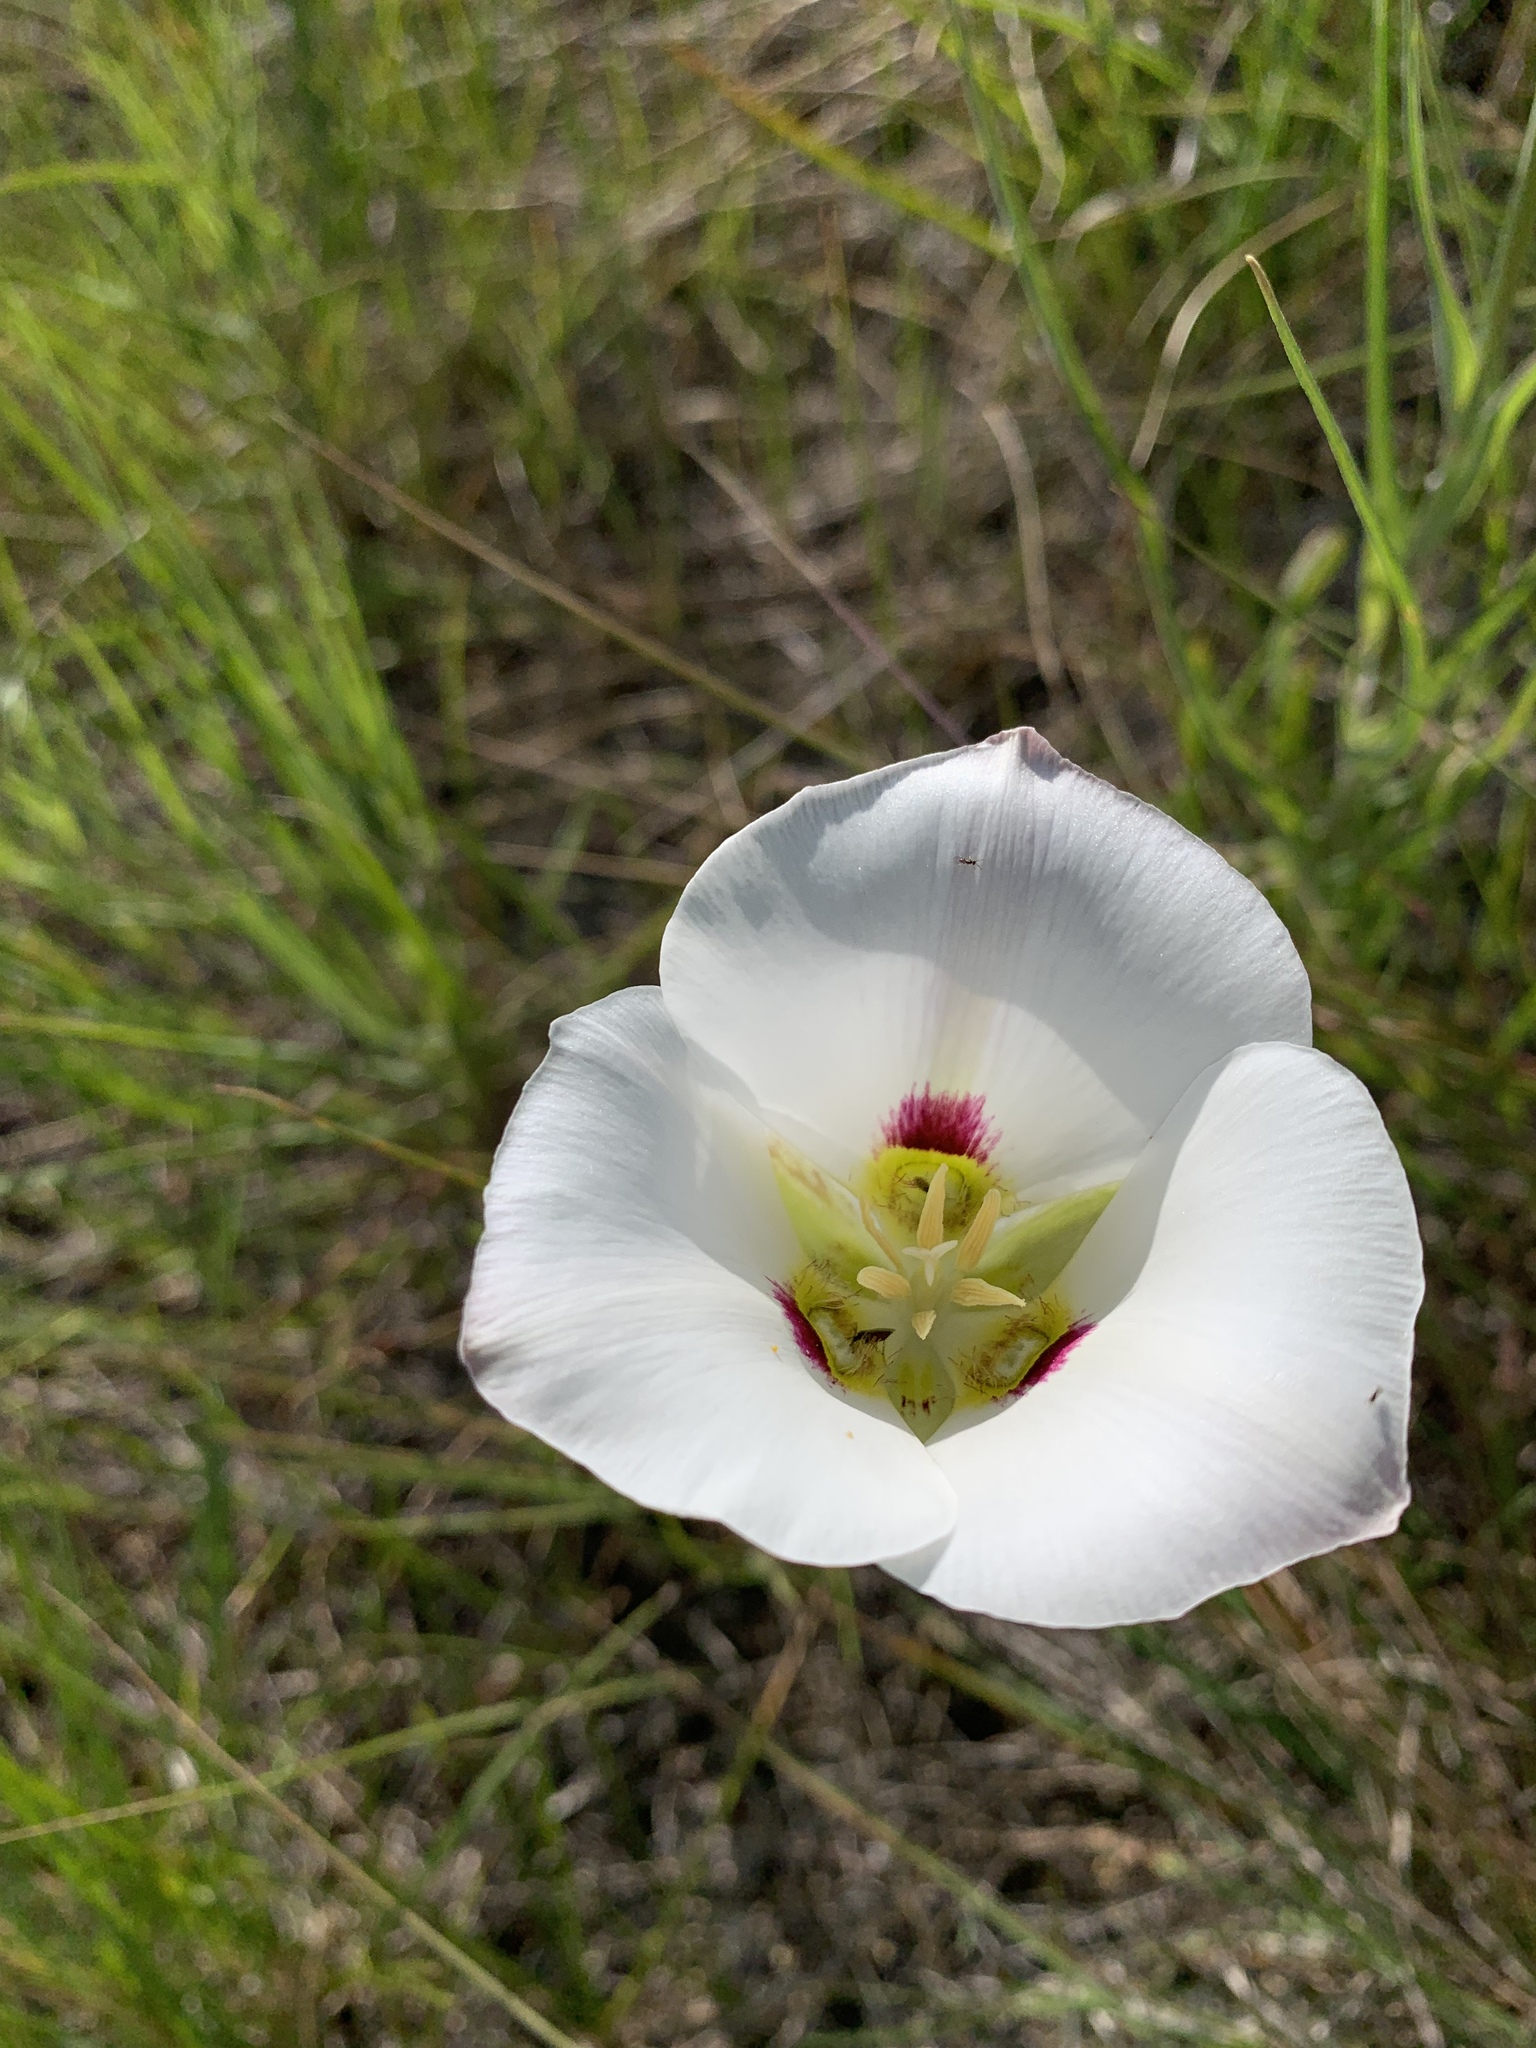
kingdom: Plantae
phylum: Tracheophyta
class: Liliopsida
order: Liliales
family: Liliaceae
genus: Calochortus
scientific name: Calochortus nuttallii
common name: Sego-lily
